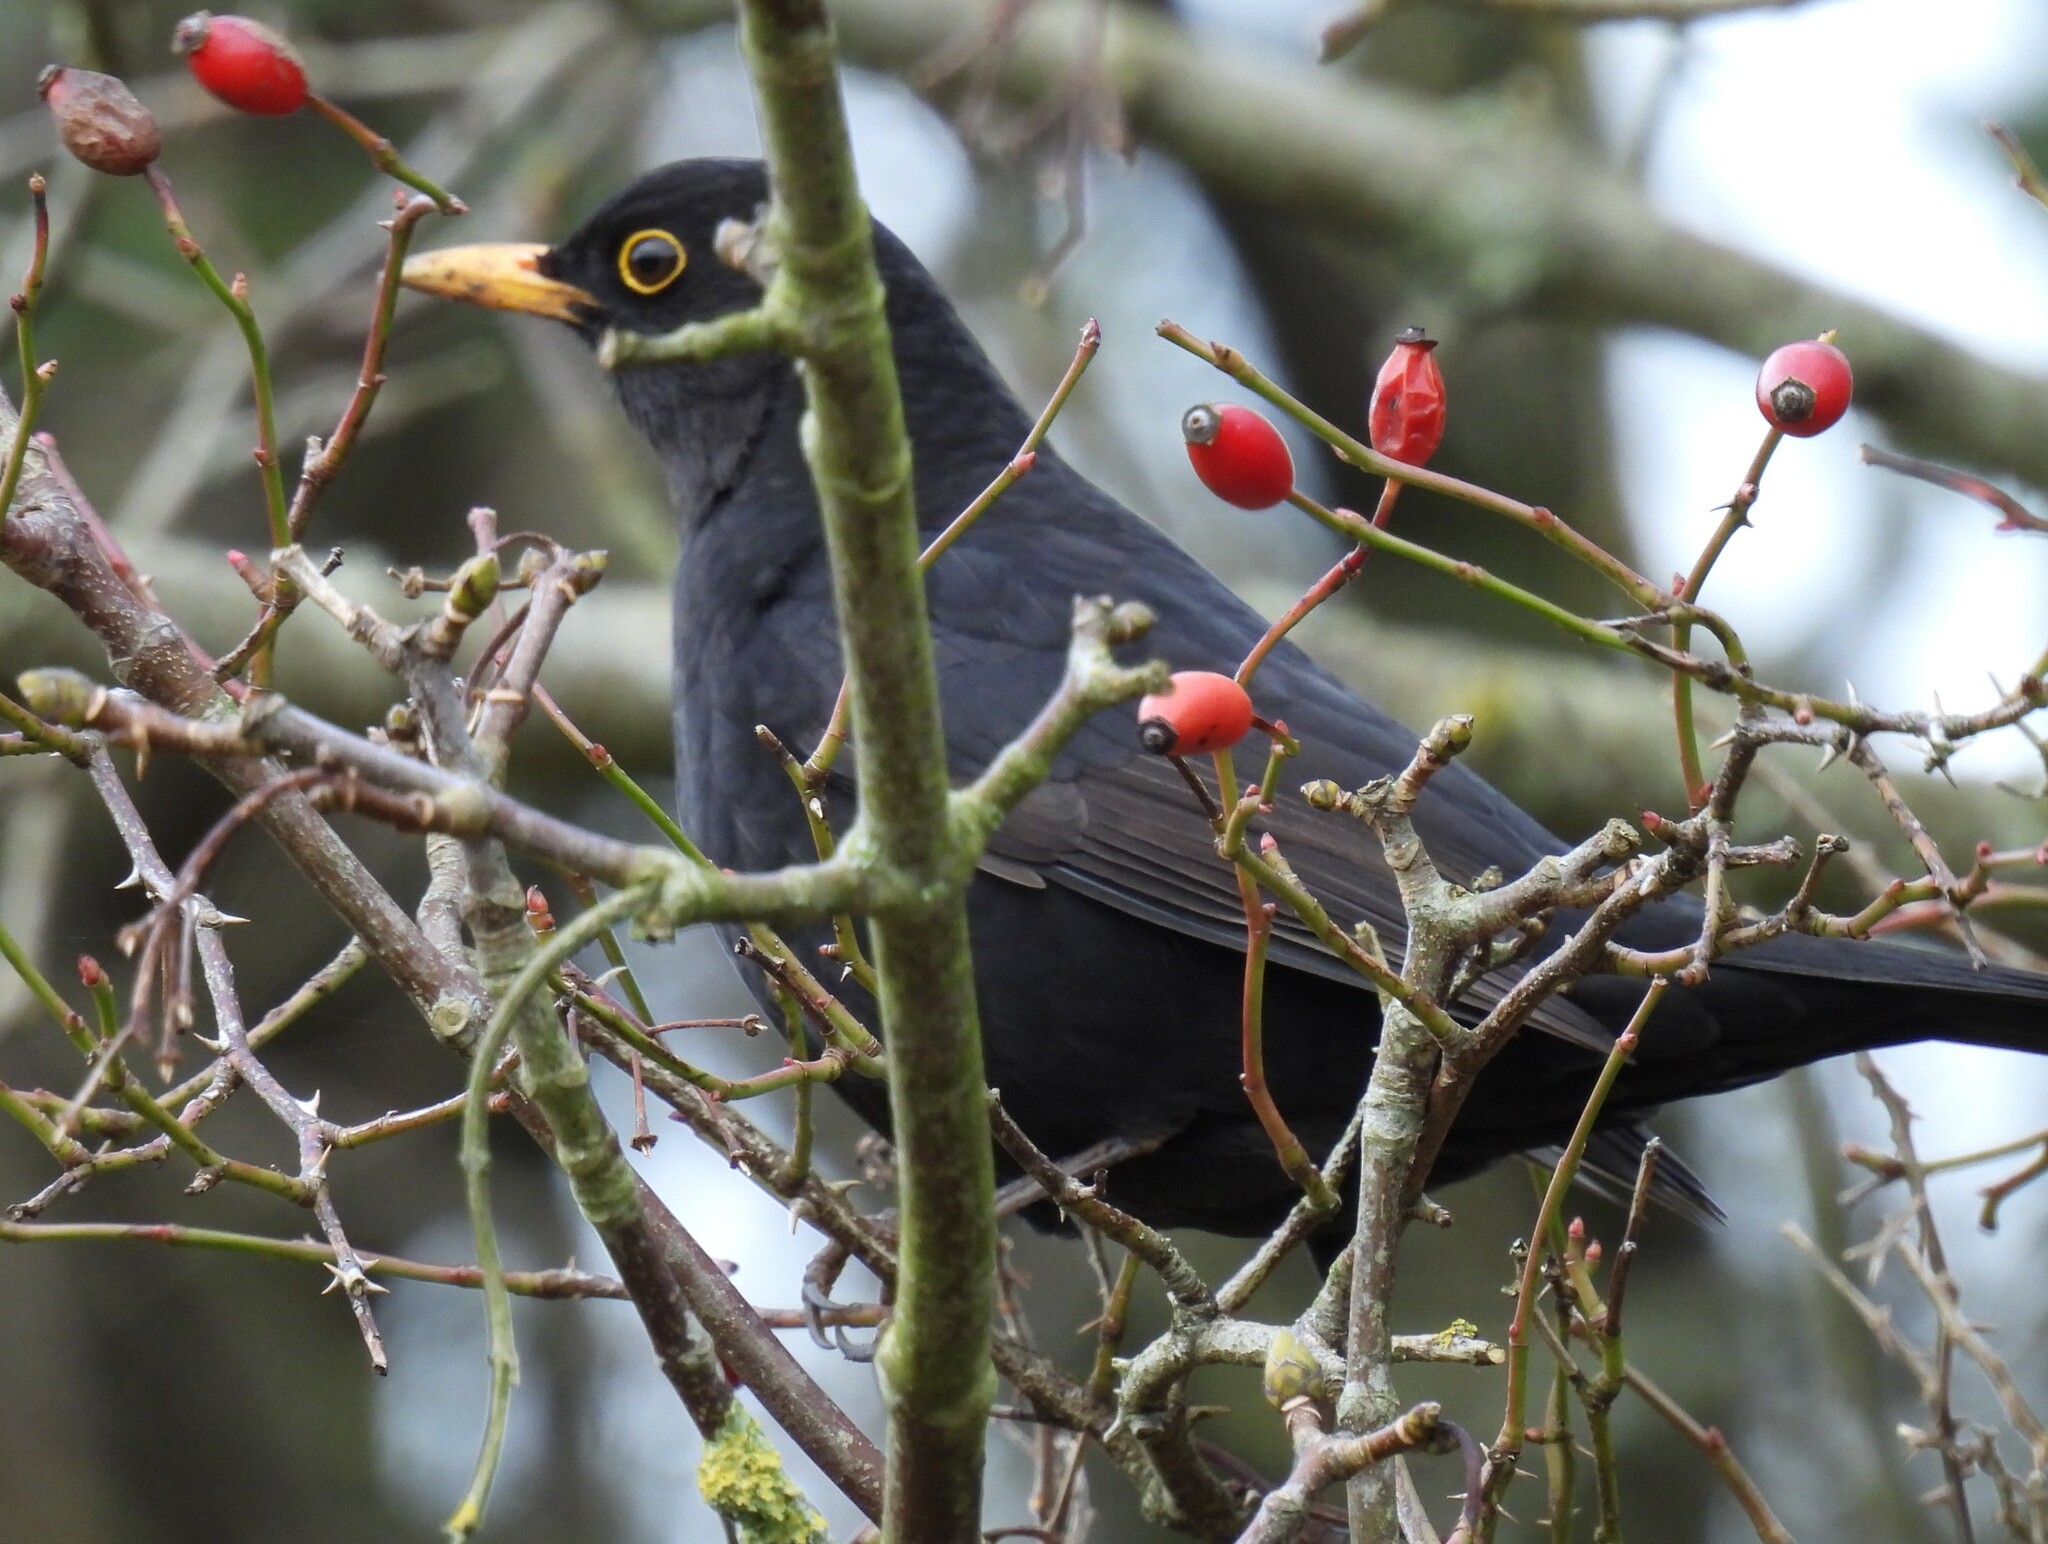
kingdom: Animalia
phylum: Chordata
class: Aves
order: Passeriformes
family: Turdidae
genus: Turdus
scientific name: Turdus merula
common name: Common blackbird
